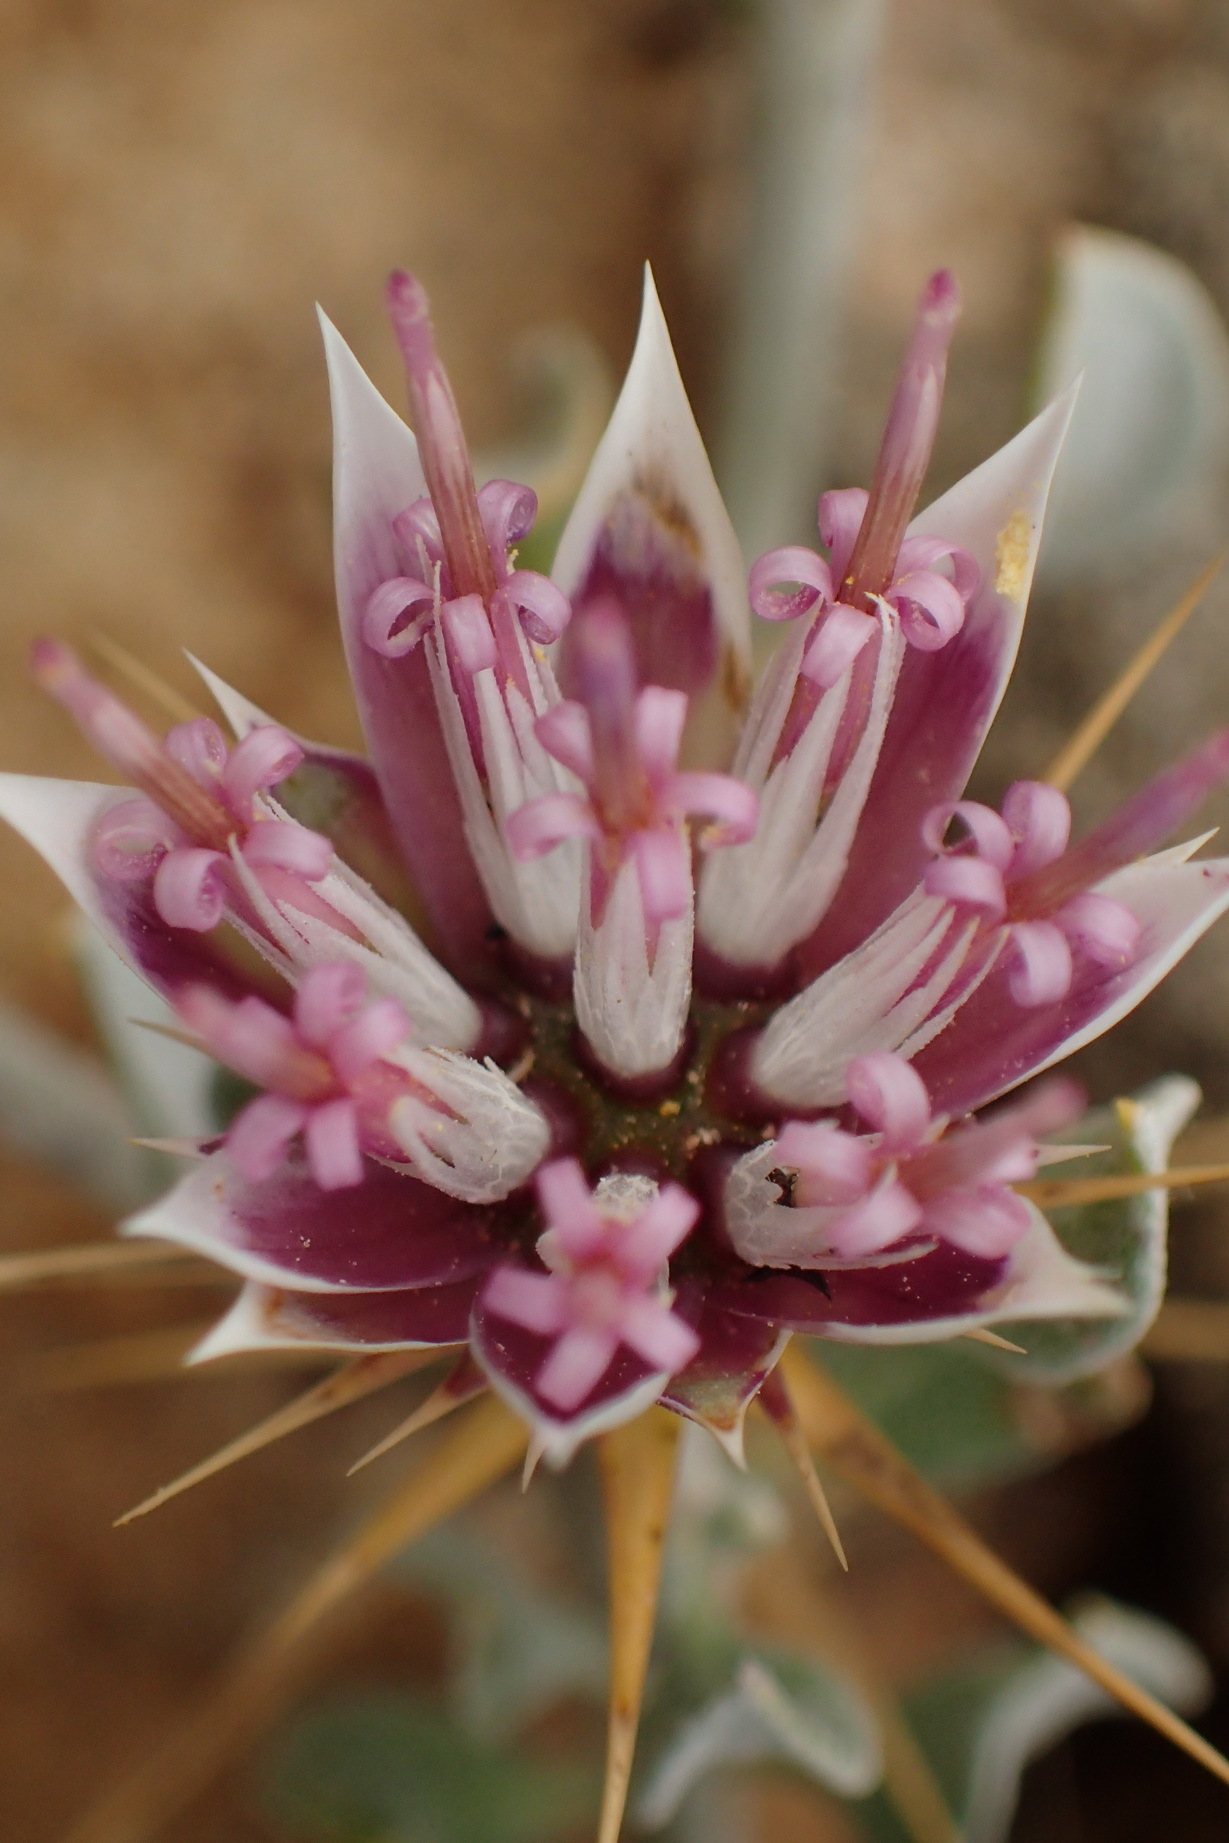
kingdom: Plantae
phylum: Tracheophyta
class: Magnoliopsida
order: Asterales
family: Asteraceae
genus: Macledium
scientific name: Macledium spinosum
